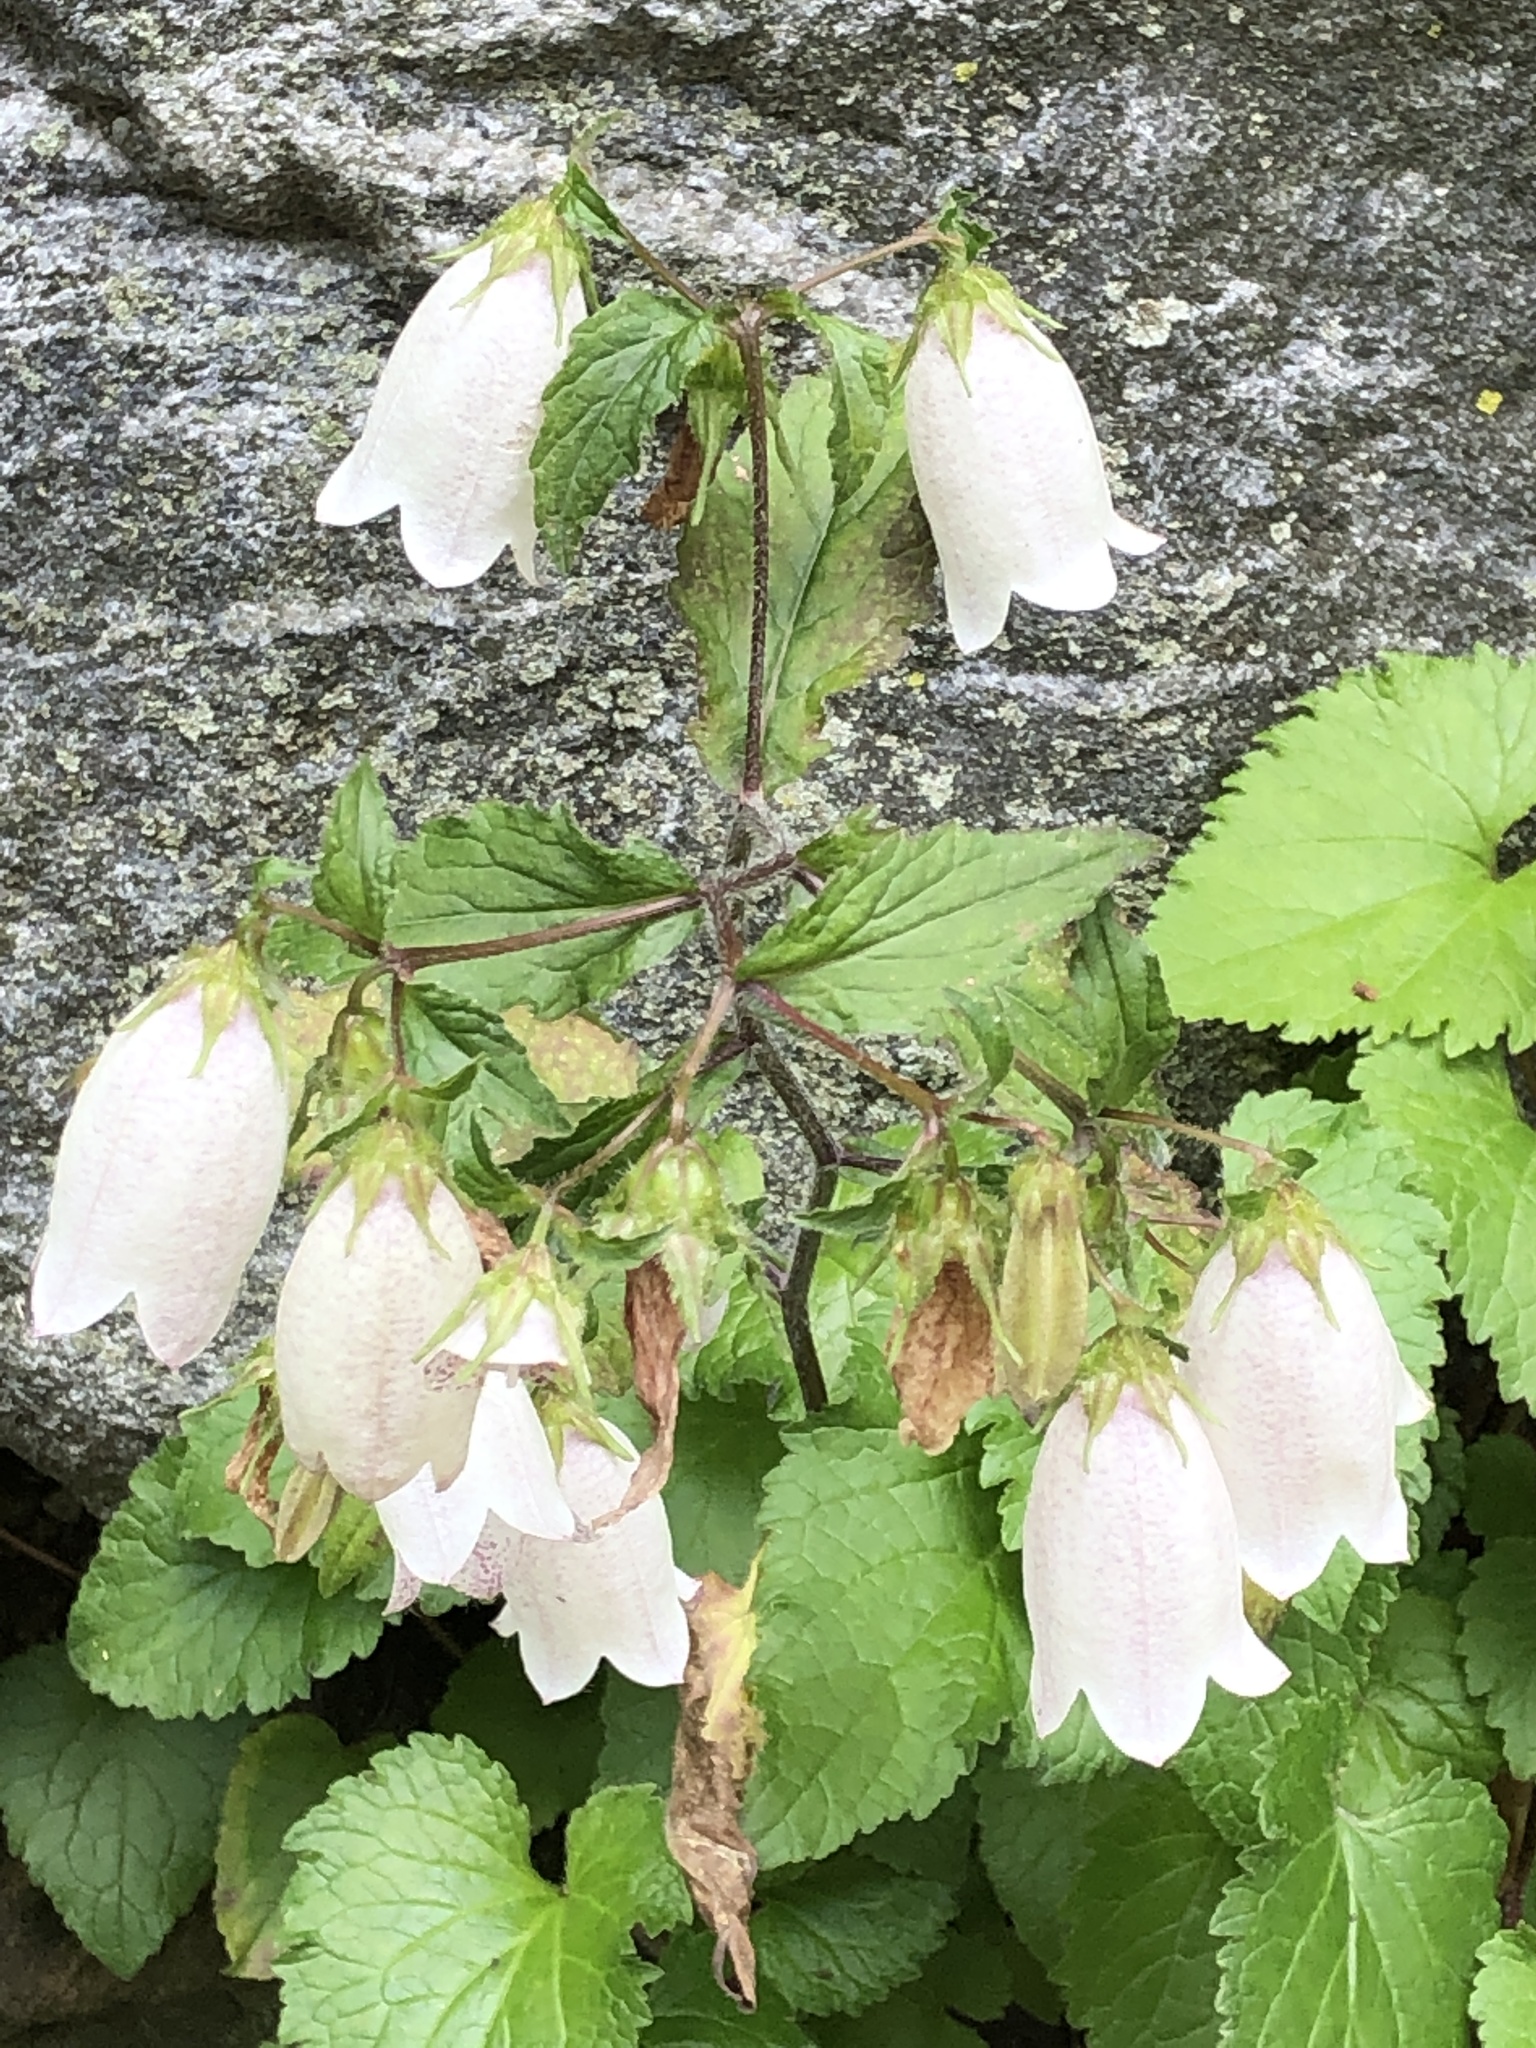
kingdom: Plantae
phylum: Tracheophyta
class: Magnoliopsida
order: Asterales
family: Campanulaceae
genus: Campanula
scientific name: Campanula punctata
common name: Spotted bellflower
